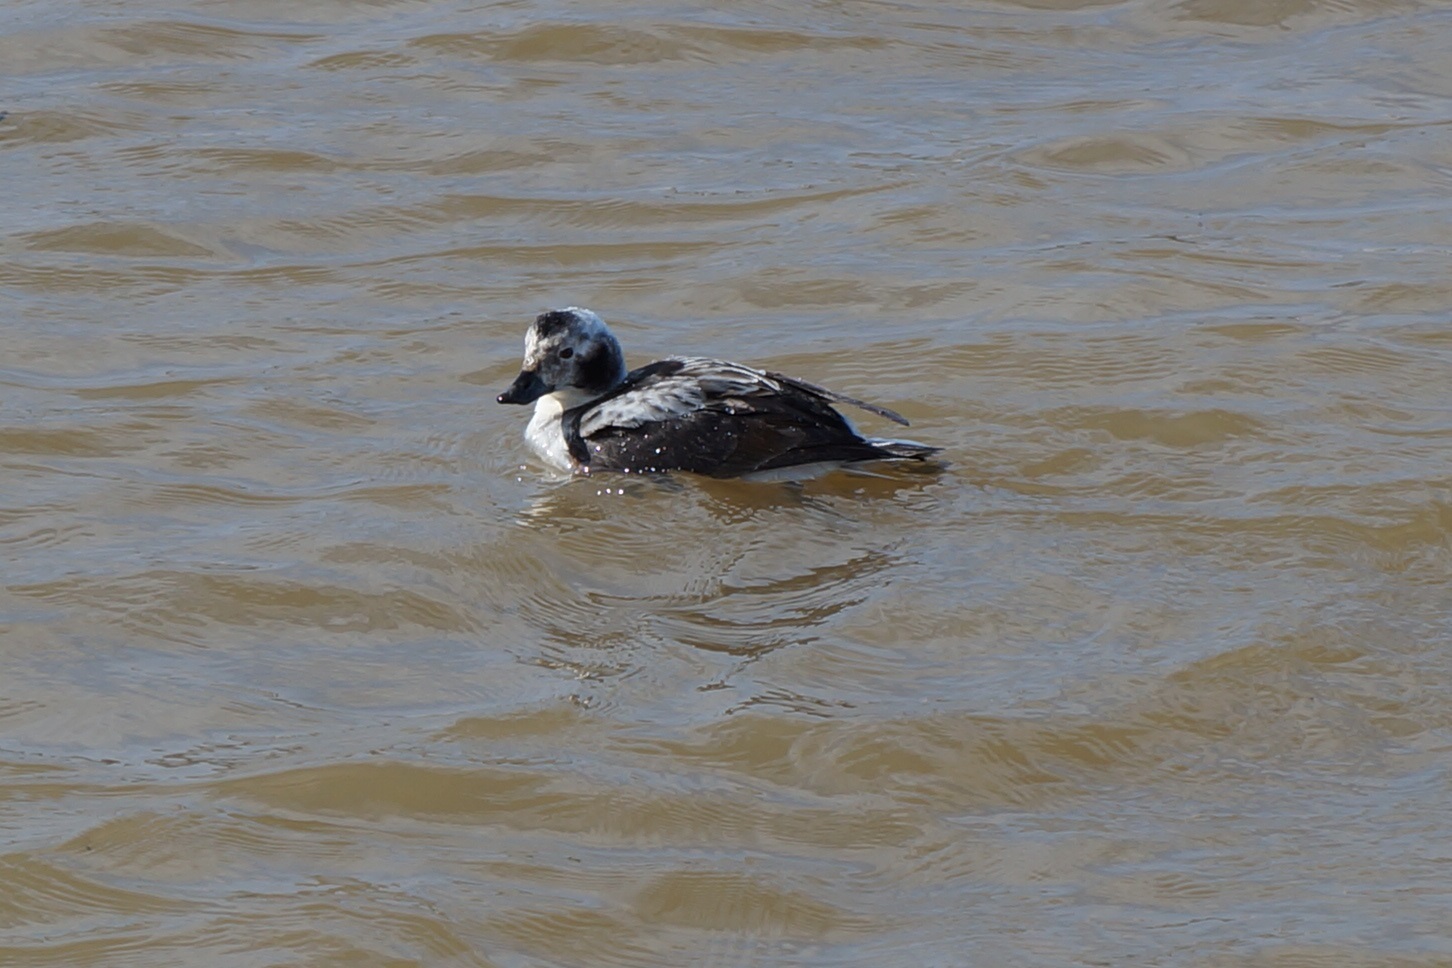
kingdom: Animalia
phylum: Chordata
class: Aves
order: Anseriformes
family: Anatidae
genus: Clangula
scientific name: Clangula hyemalis
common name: Long-tailed duck
